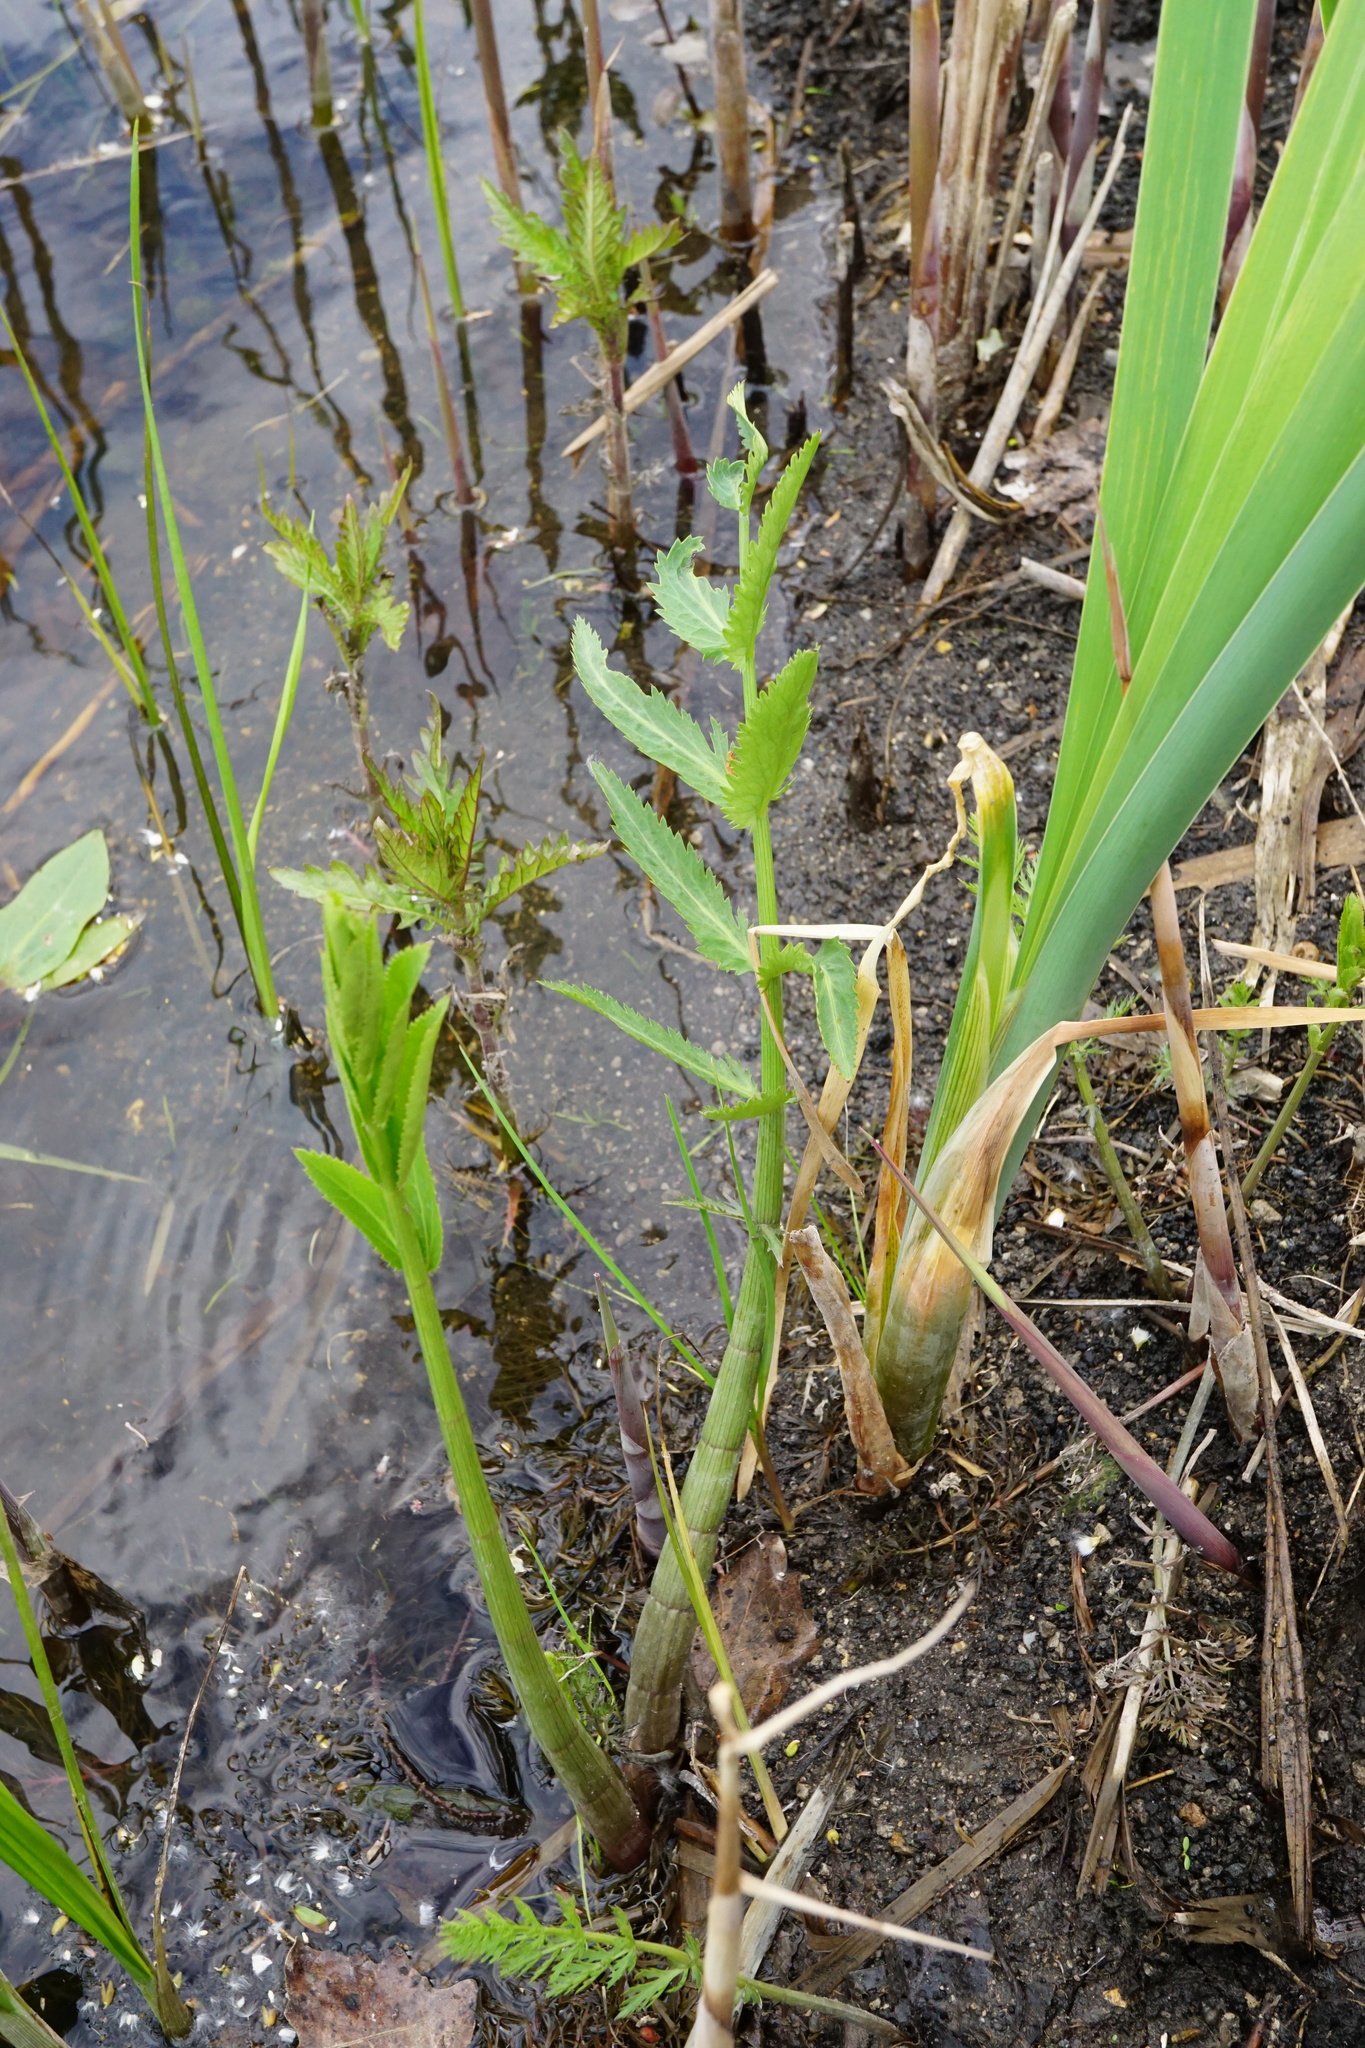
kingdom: Plantae
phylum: Tracheophyta
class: Magnoliopsida
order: Apiales
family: Apiaceae
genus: Sium
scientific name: Sium latifolium
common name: Greater water-parsnip
